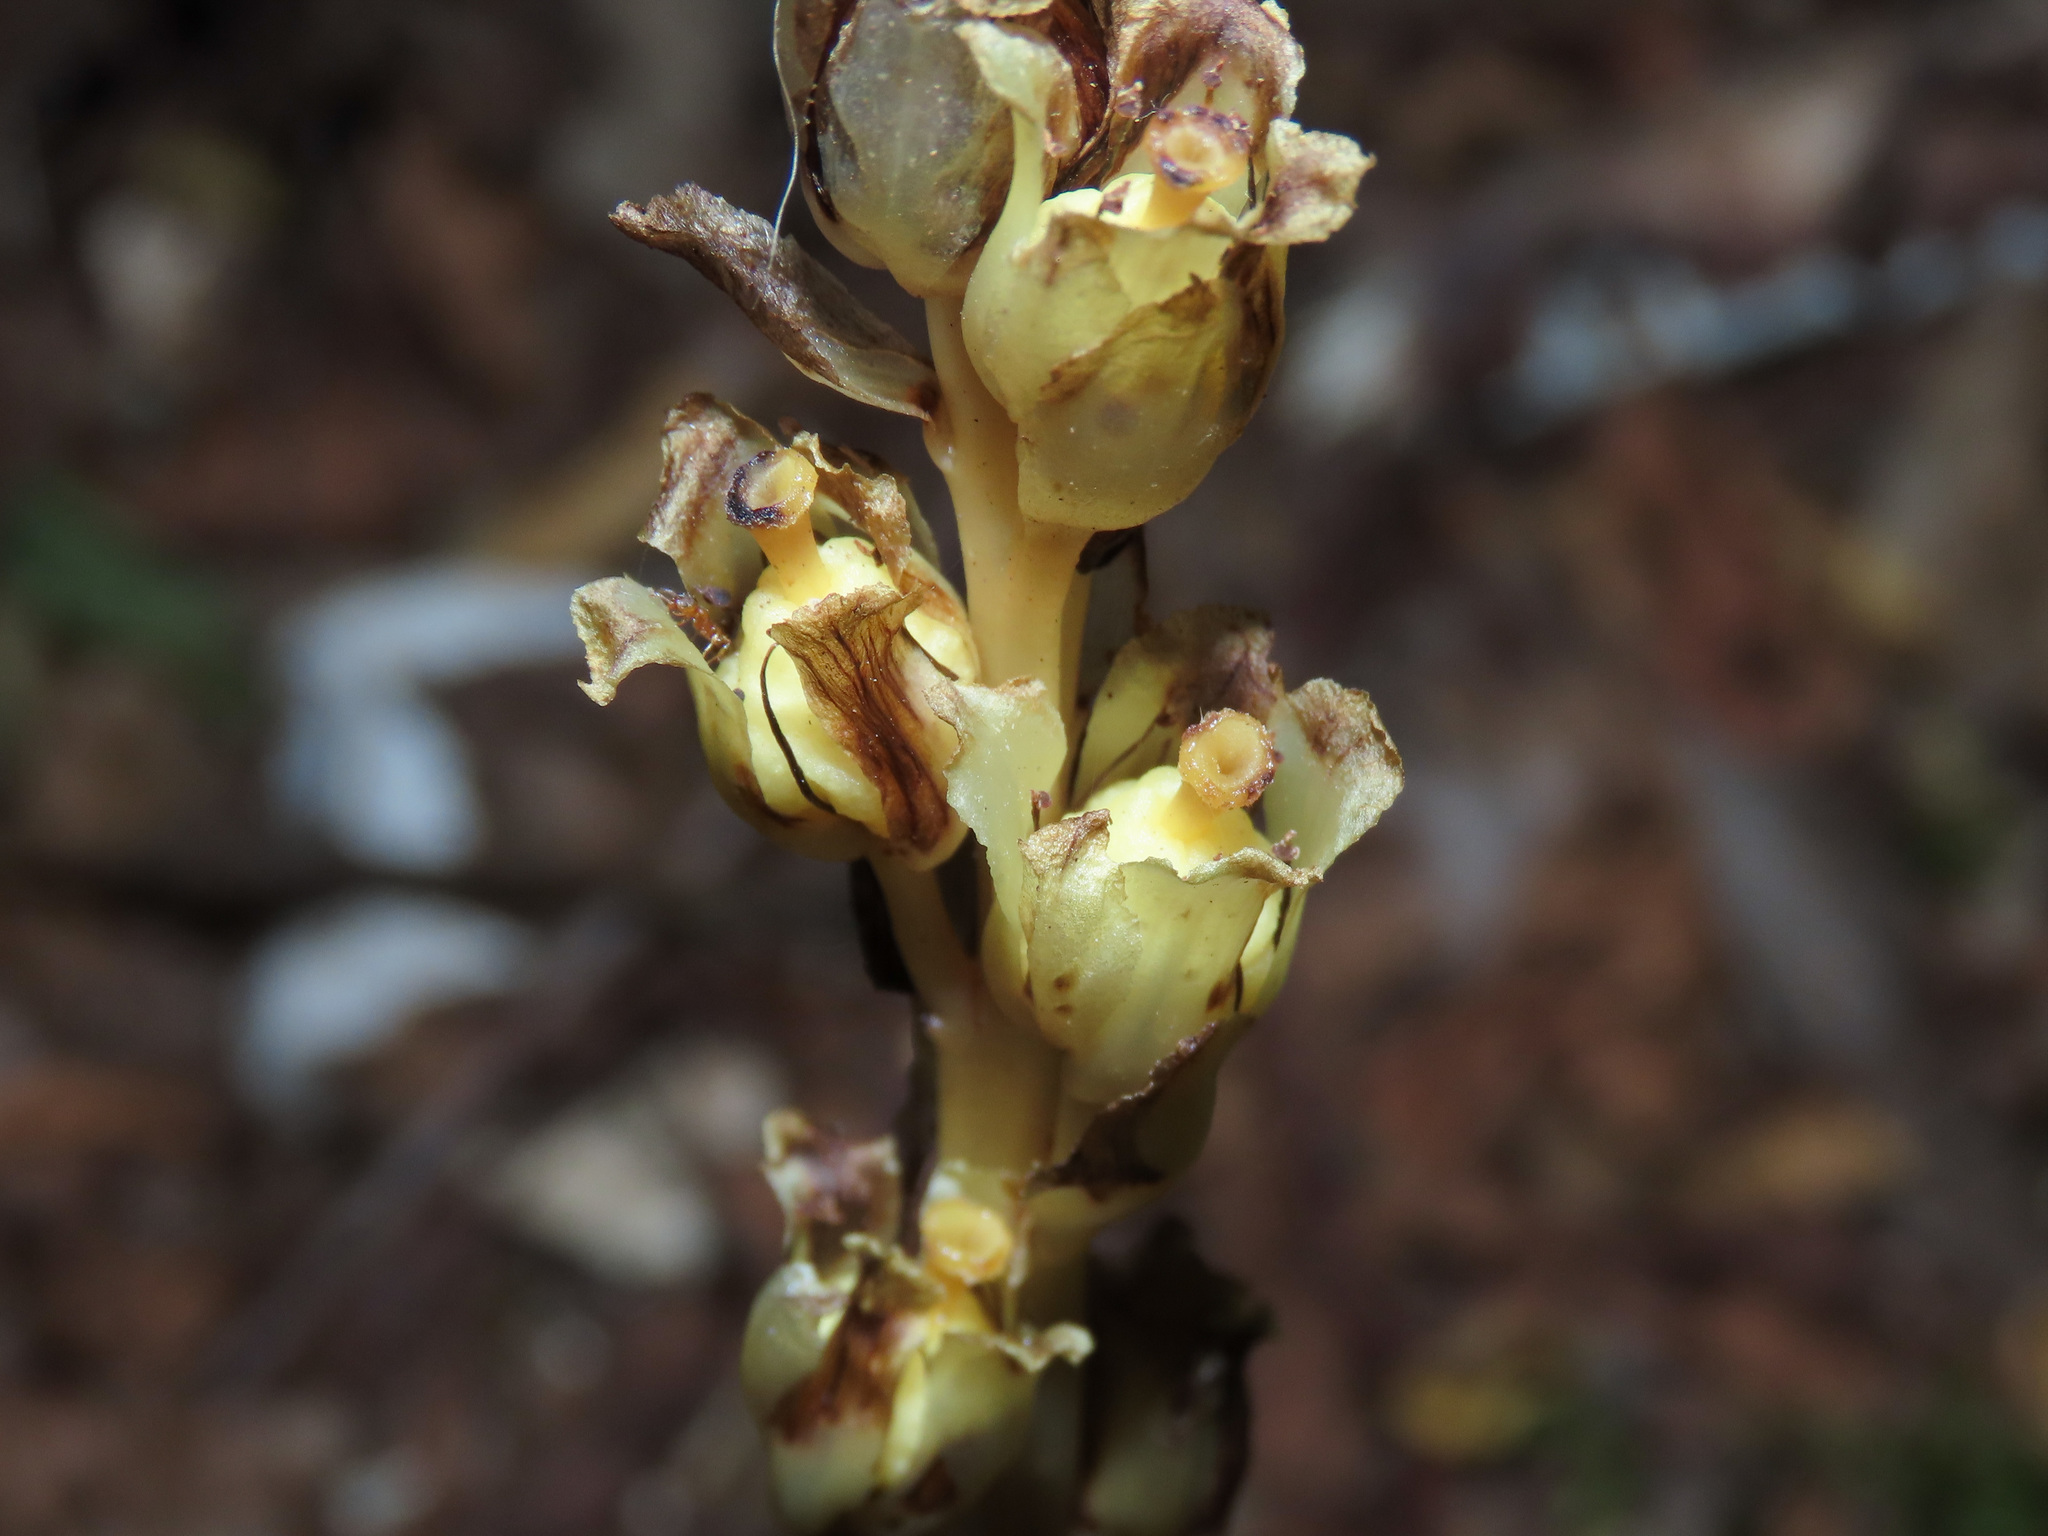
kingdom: Plantae
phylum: Tracheophyta
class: Magnoliopsida
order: Ericales
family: Ericaceae
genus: Hypopitys
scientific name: Hypopitys hypophegea
